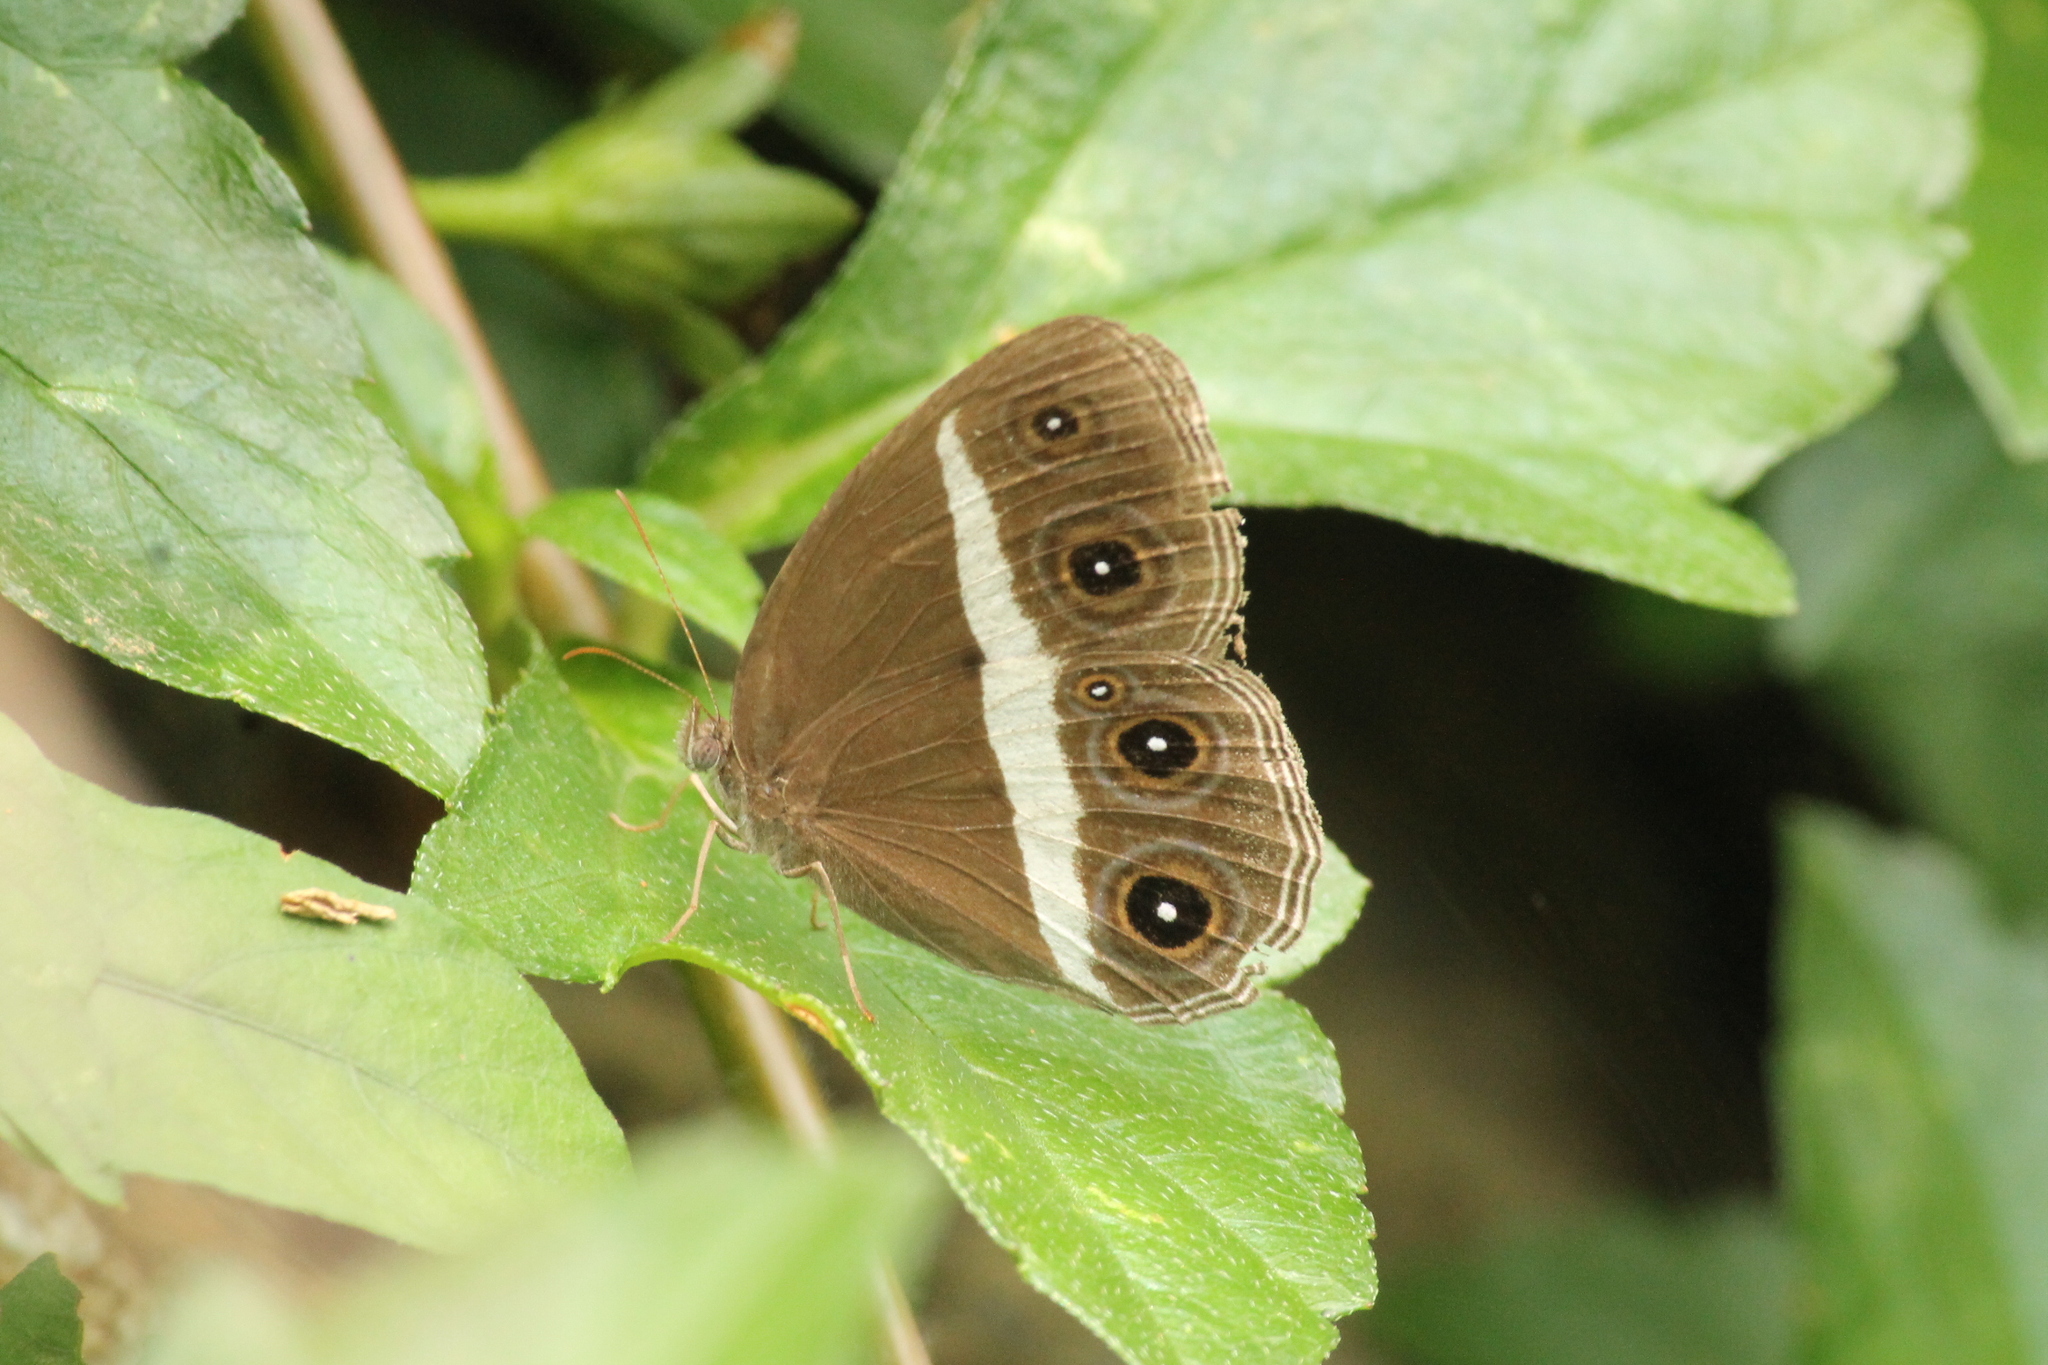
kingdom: Animalia
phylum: Arthropoda
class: Insecta
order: Lepidoptera
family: Nymphalidae
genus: Orsotriaena
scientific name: Orsotriaena medus
